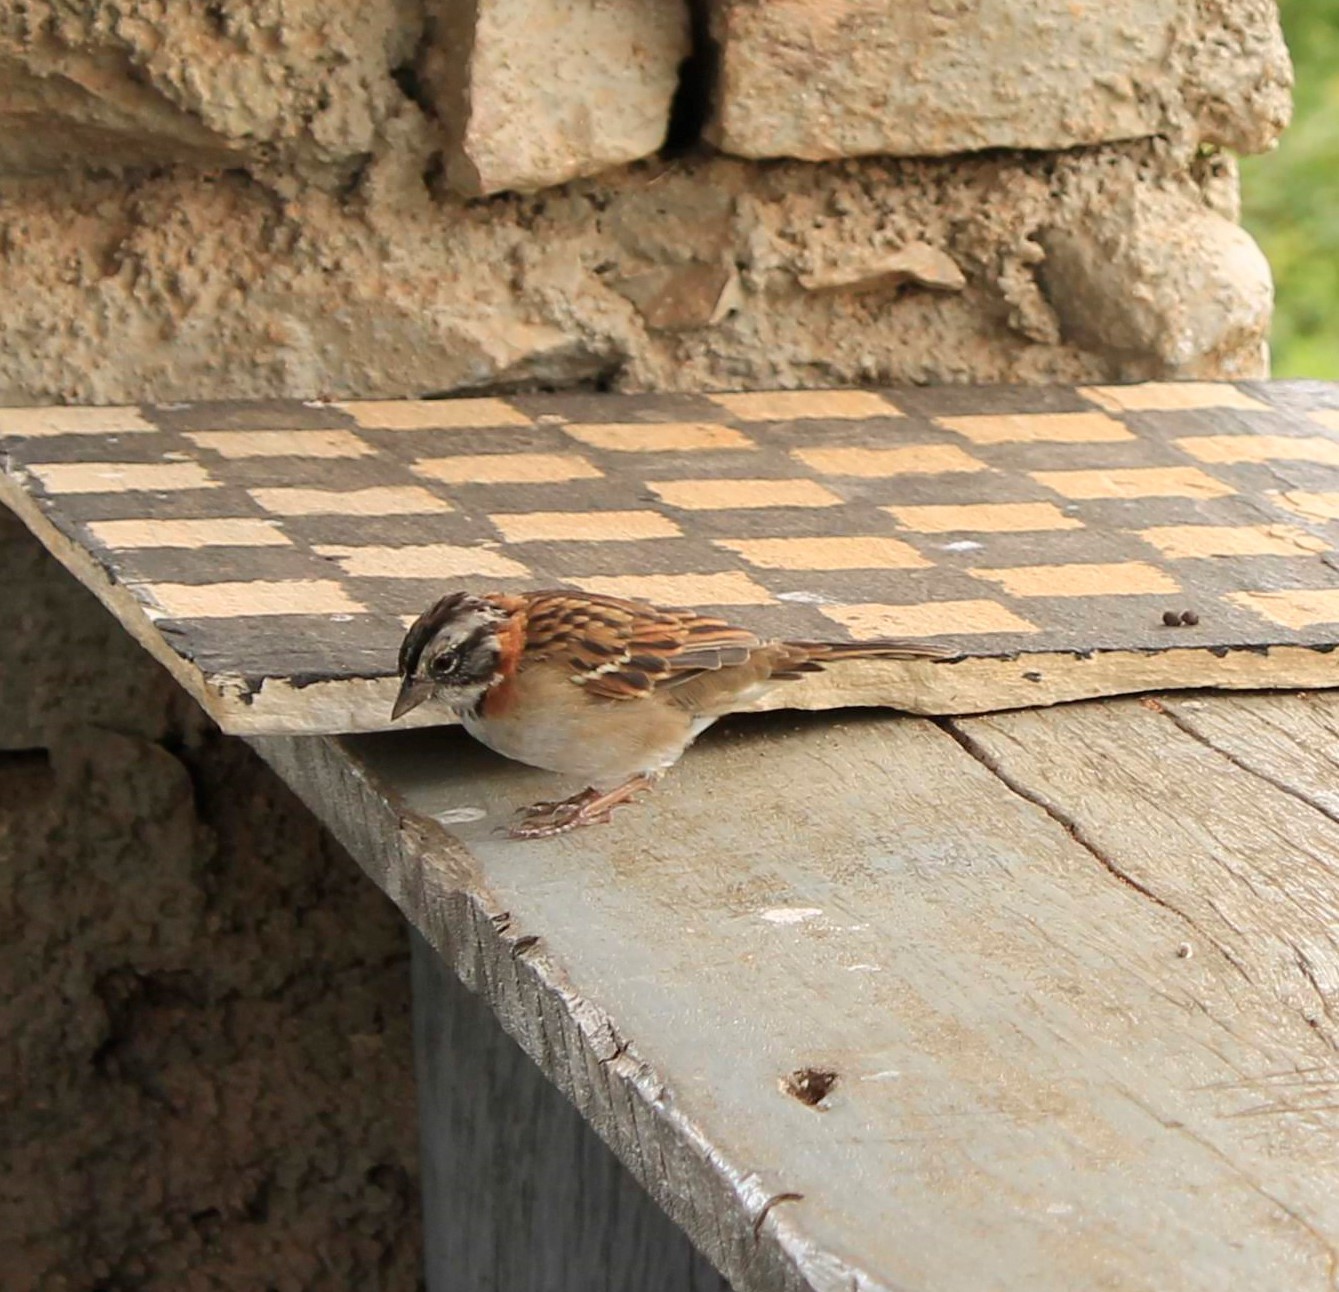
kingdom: Animalia
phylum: Chordata
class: Aves
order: Passeriformes
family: Passerellidae
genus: Zonotrichia
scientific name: Zonotrichia capensis
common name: Rufous-collared sparrow
